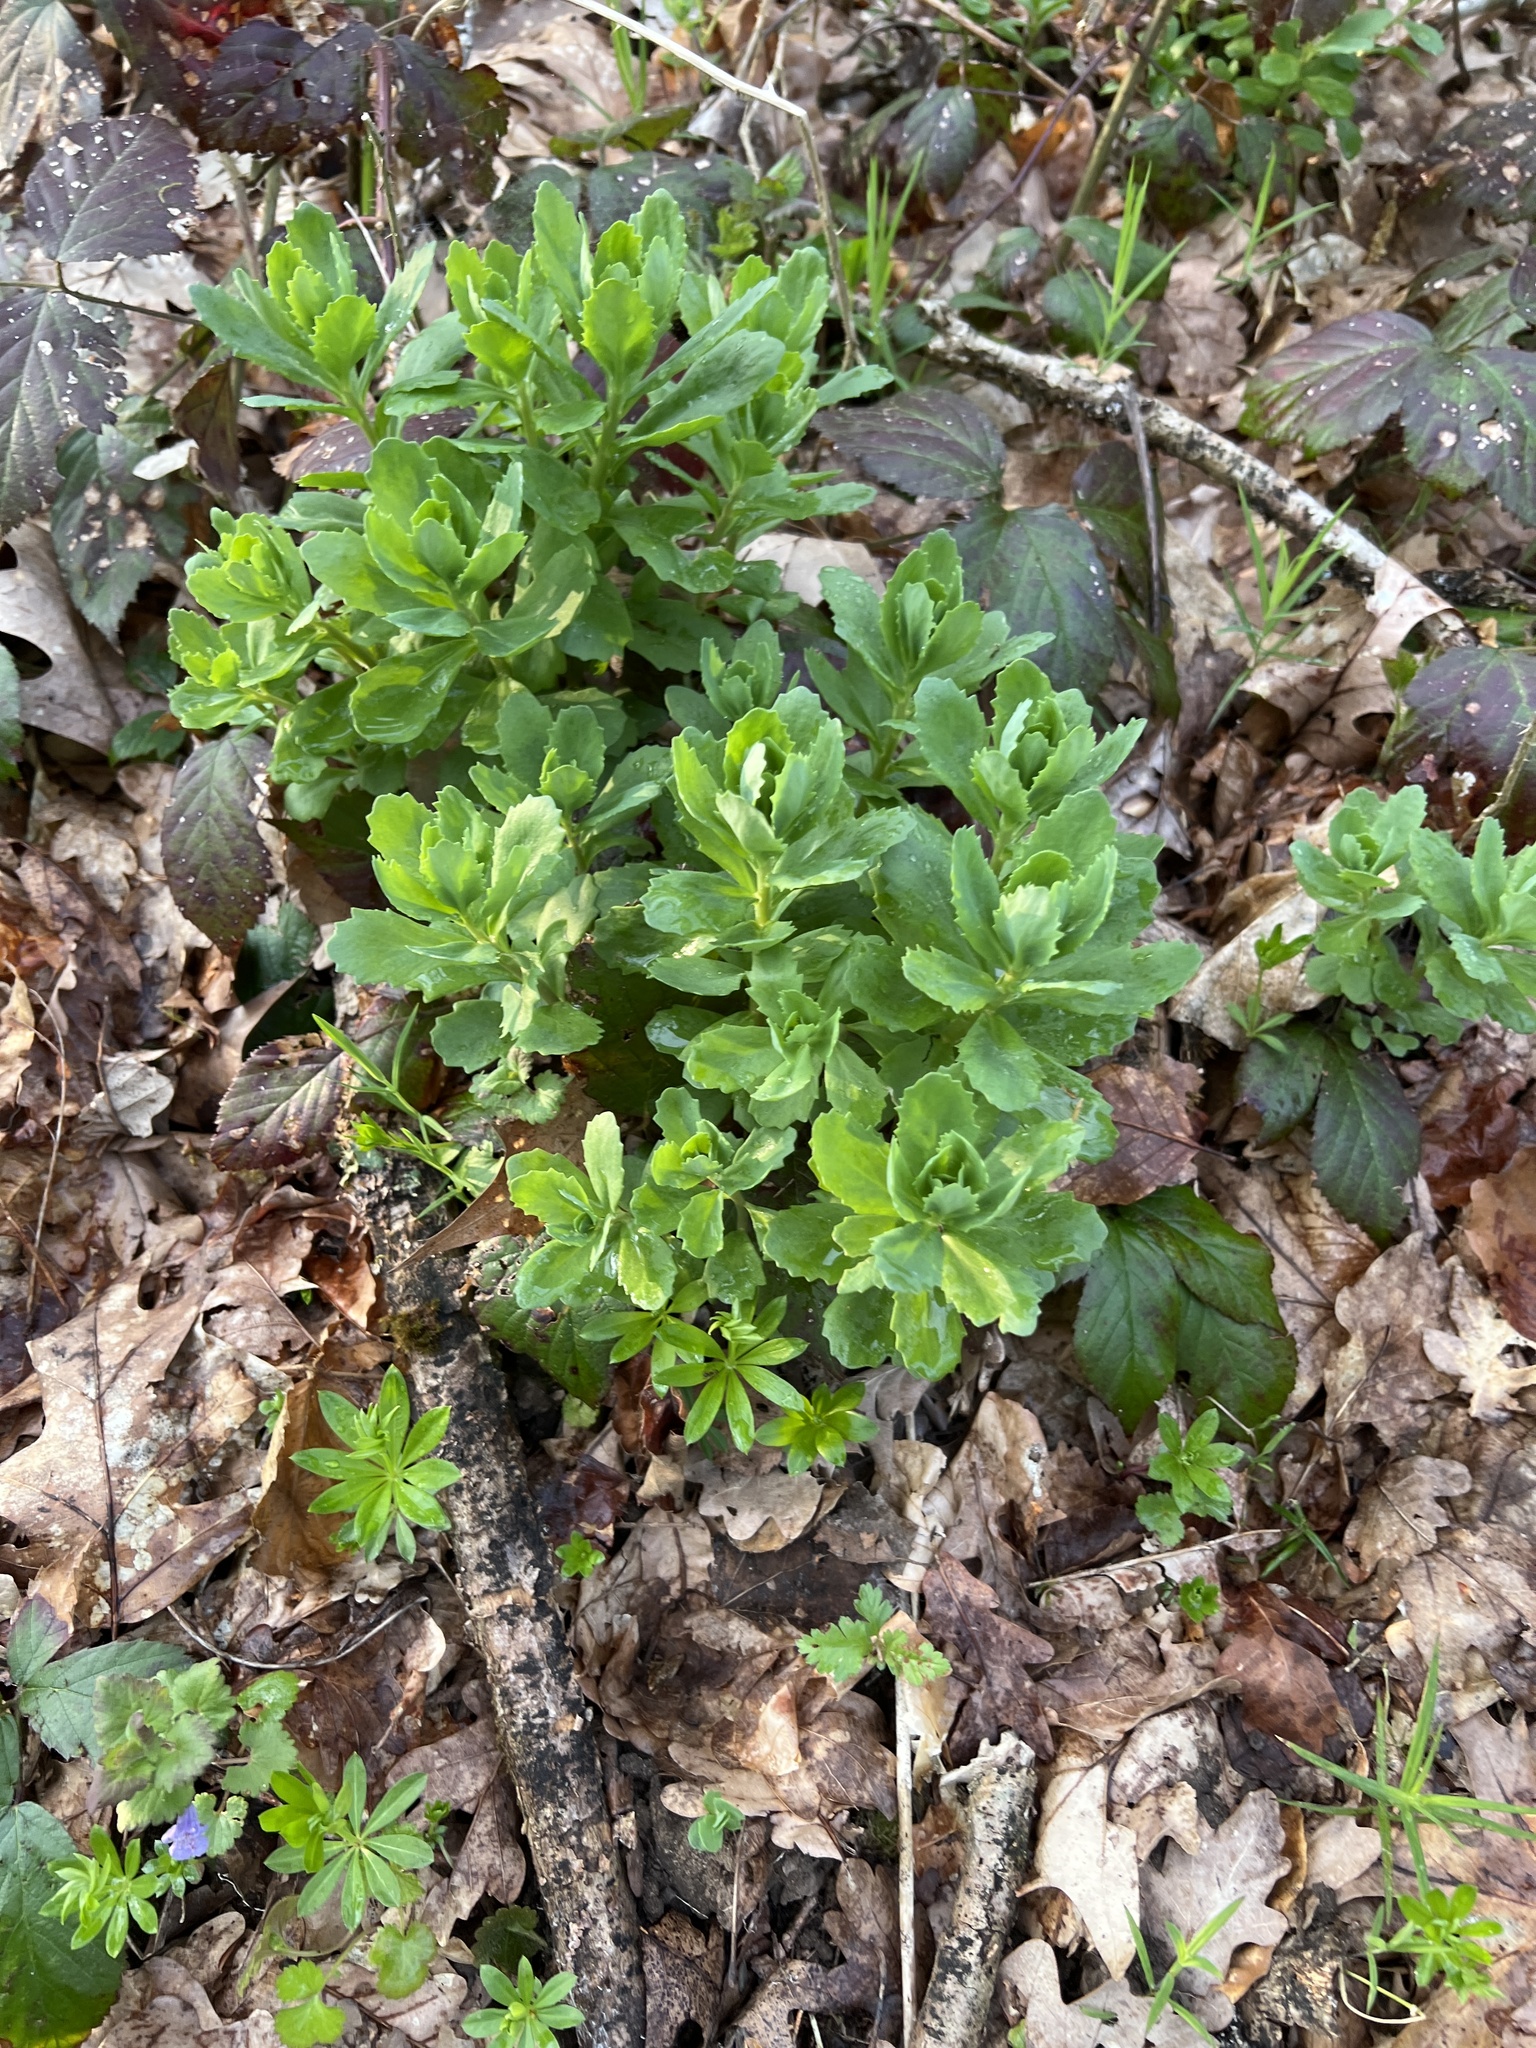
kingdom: Plantae
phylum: Tracheophyta
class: Magnoliopsida
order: Saxifragales
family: Crassulaceae
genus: Hylotelephium
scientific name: Hylotelephium telephium
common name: Live-forever
